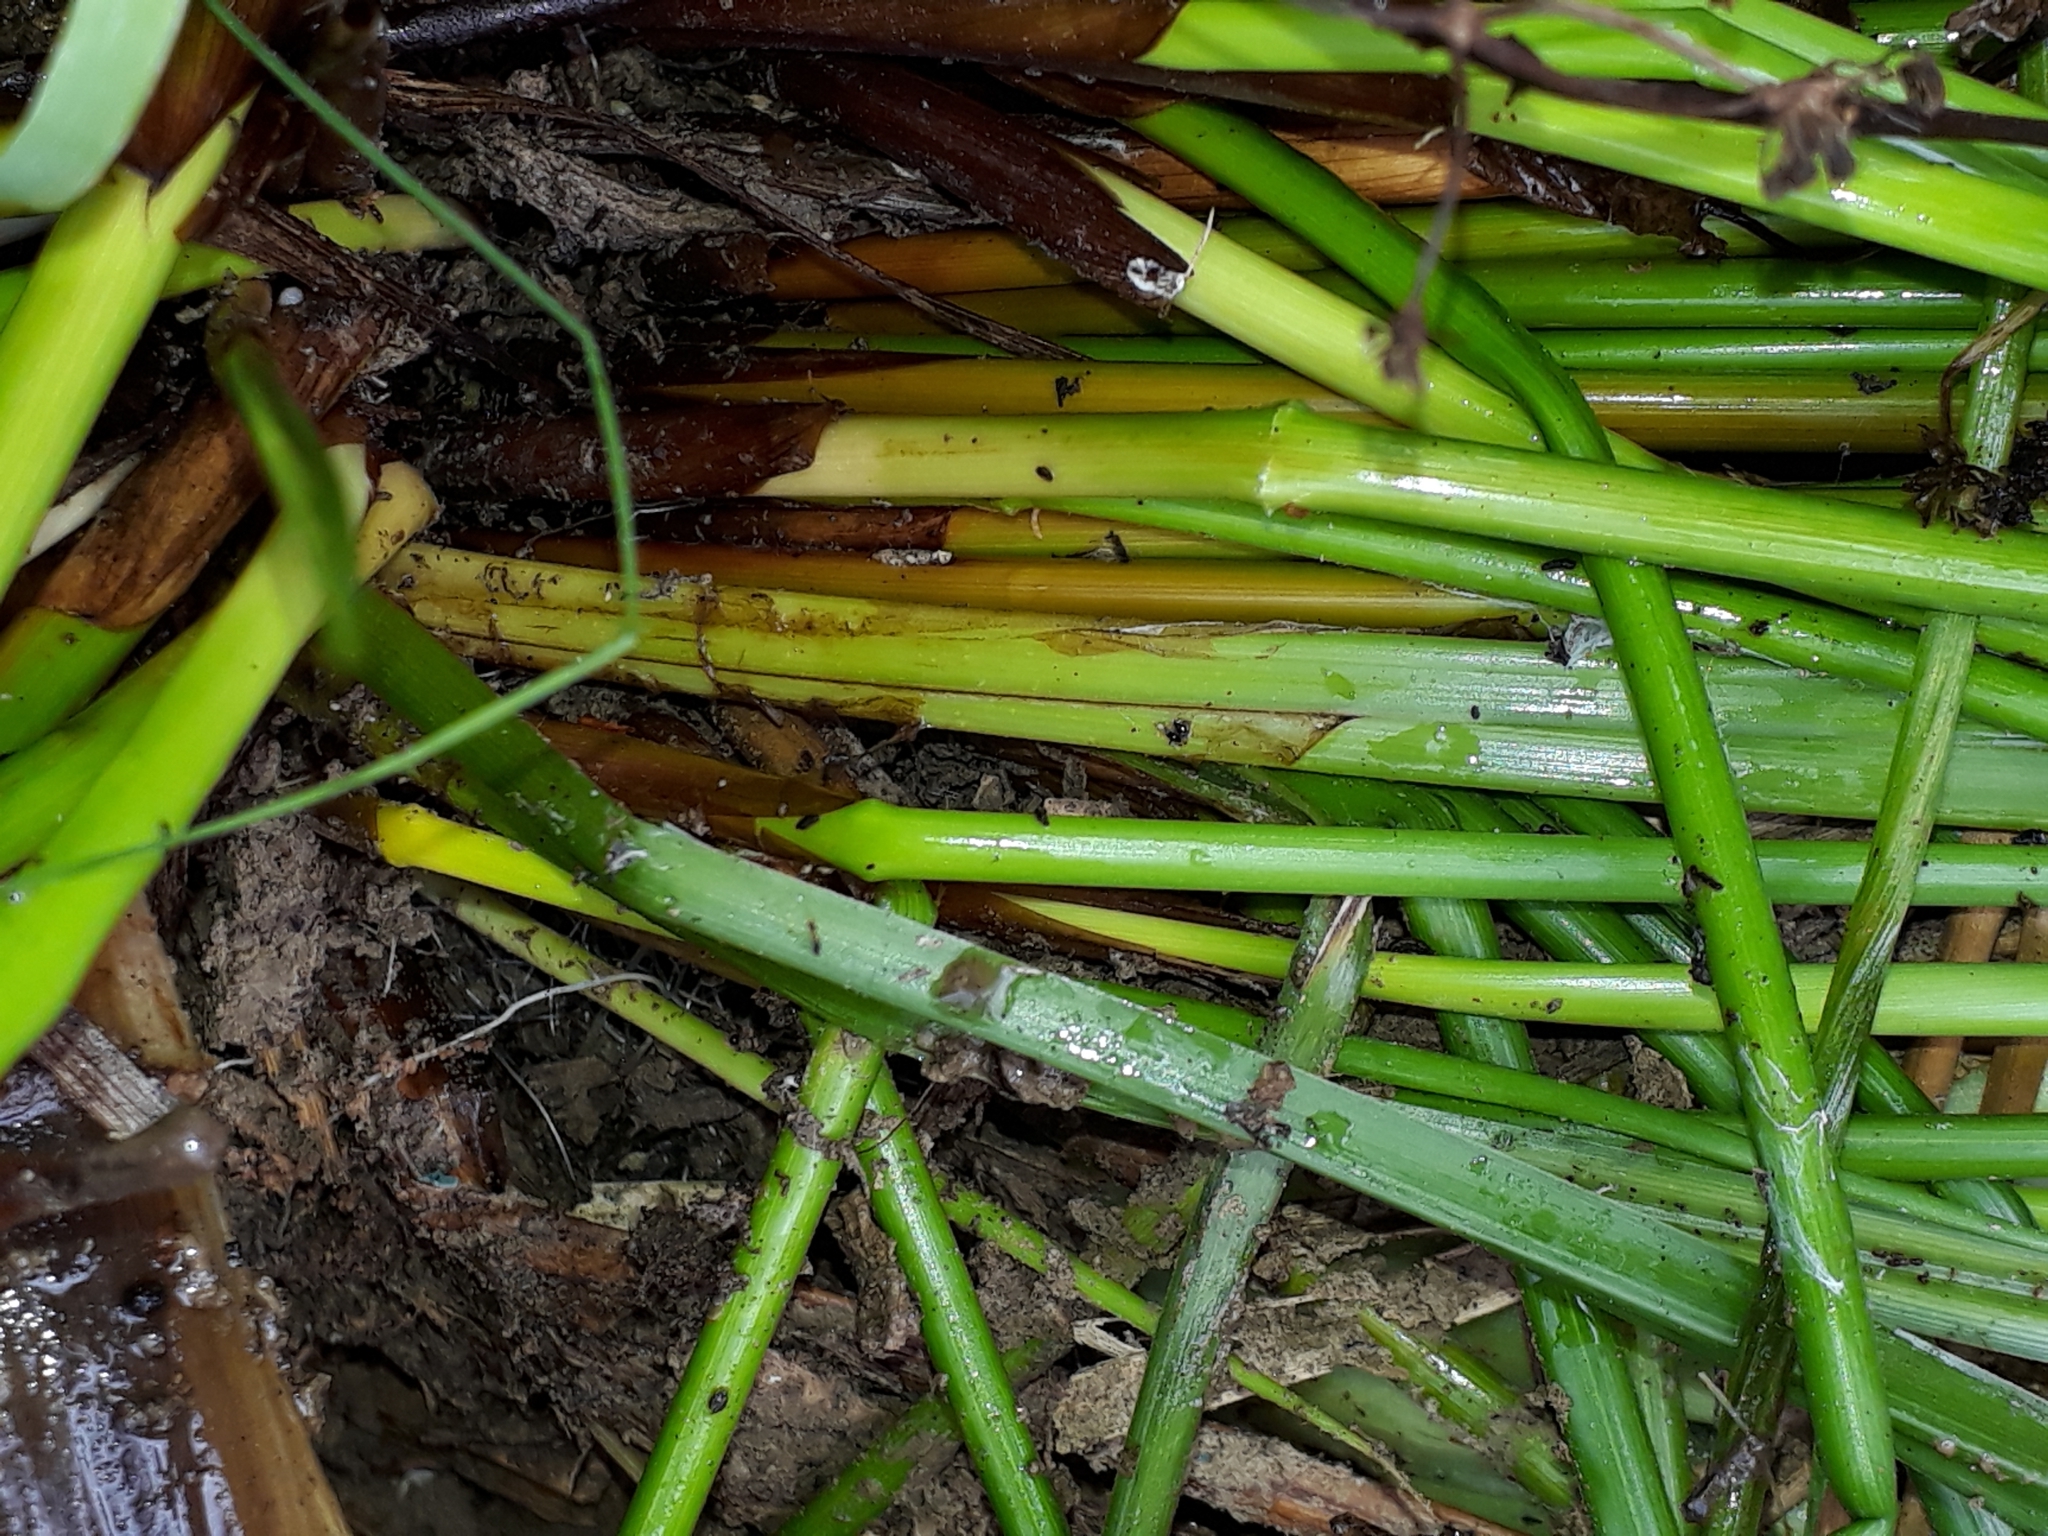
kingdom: Plantae
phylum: Tracheophyta
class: Liliopsida
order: Poales
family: Juncaceae
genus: Juncus
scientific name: Juncus effusus
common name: Soft rush
